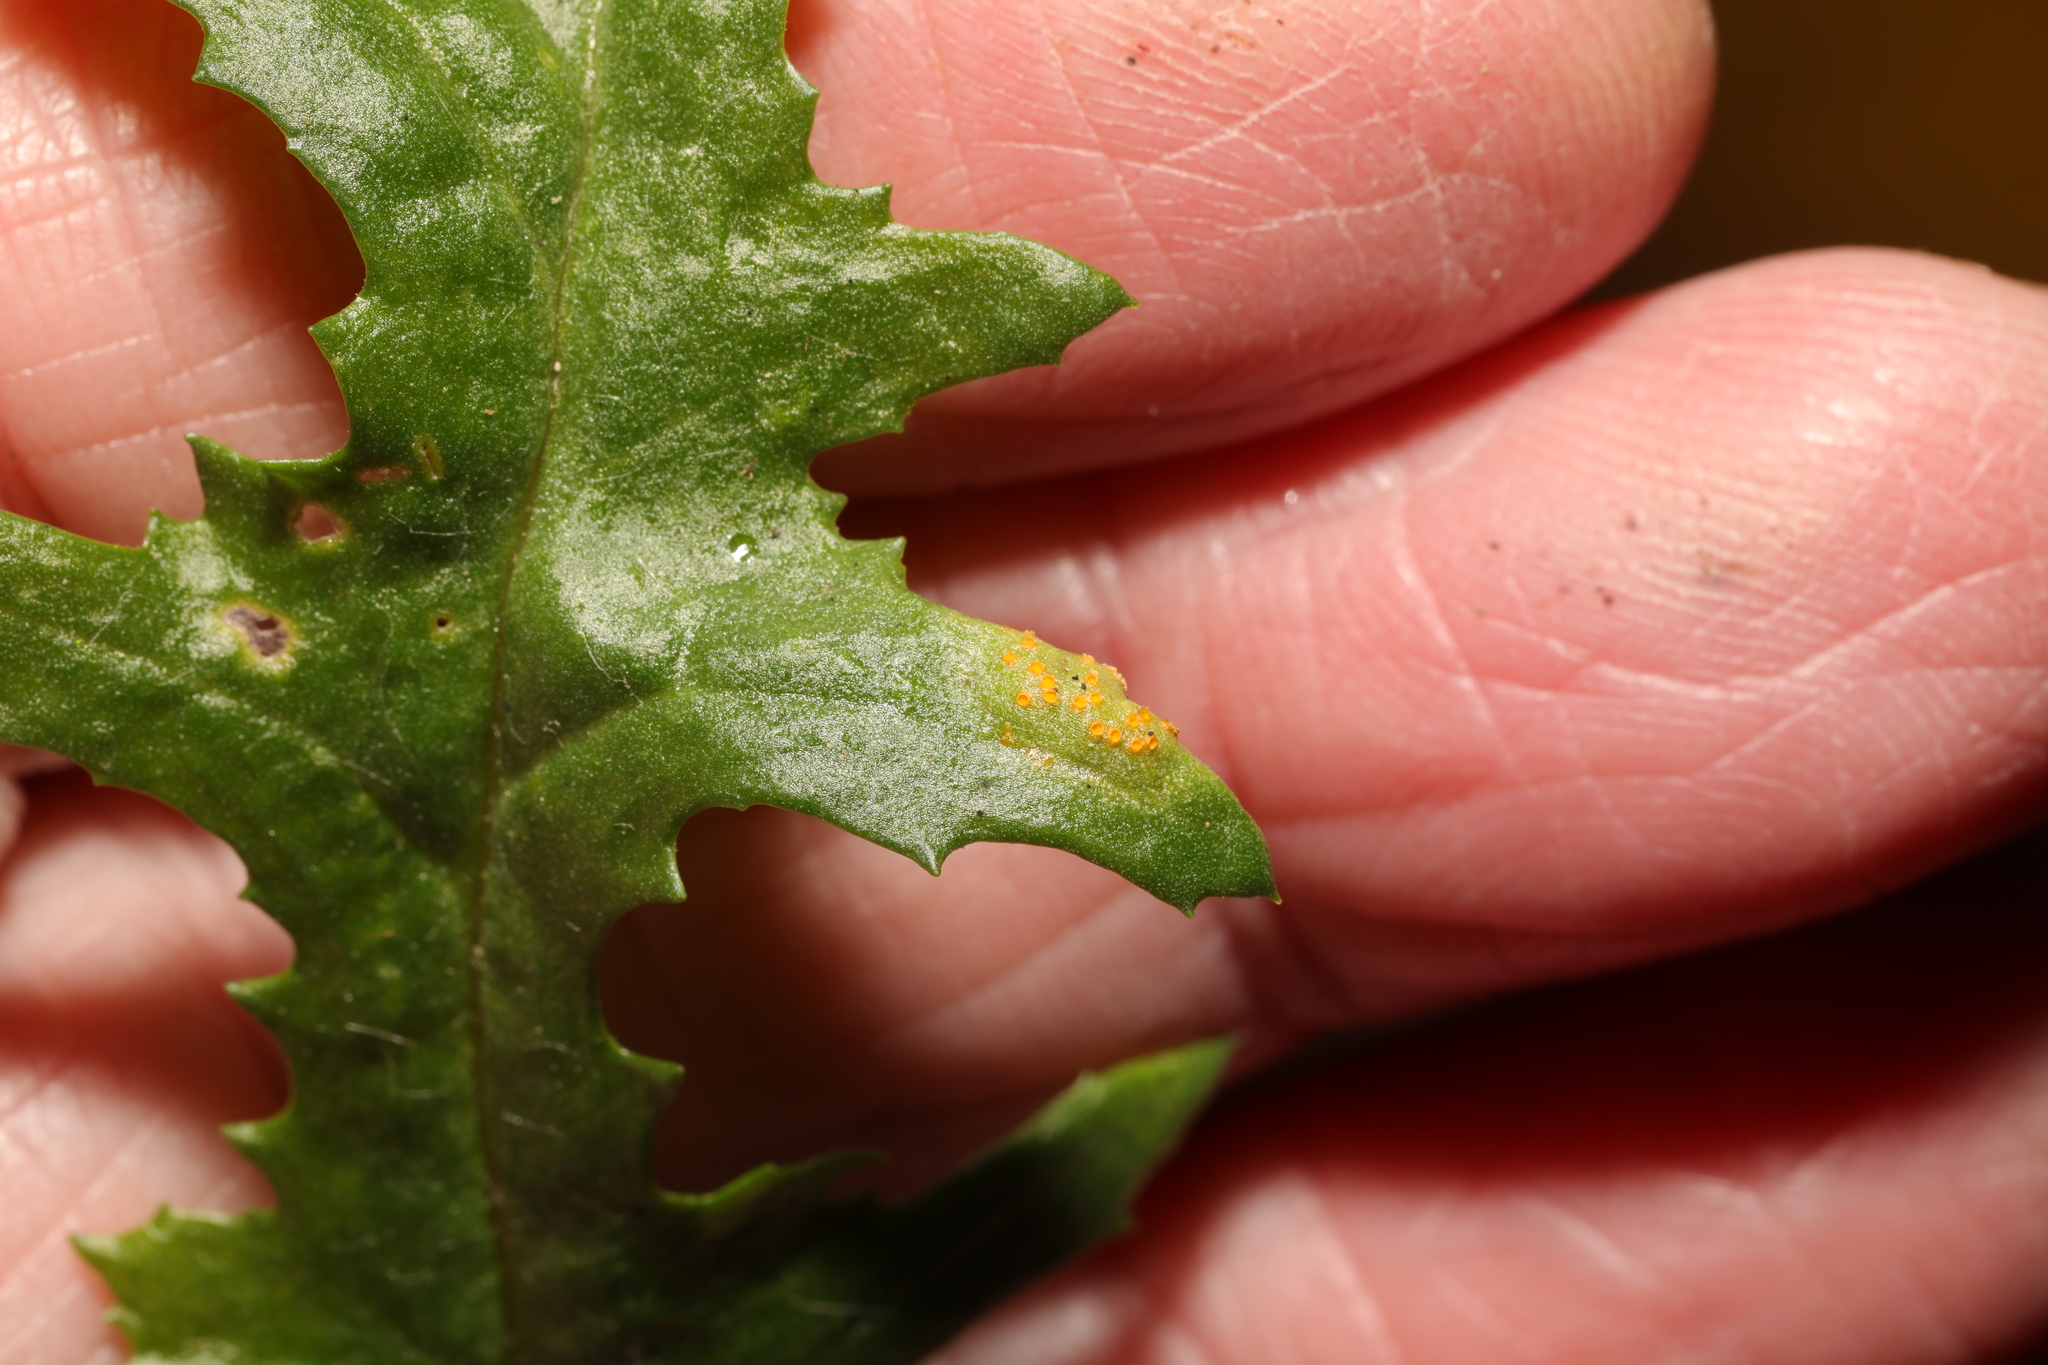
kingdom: Fungi
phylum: Basidiomycota
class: Pucciniomycetes
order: Pucciniales
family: Pucciniaceae
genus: Puccinia
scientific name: Puccinia lagenophorae
